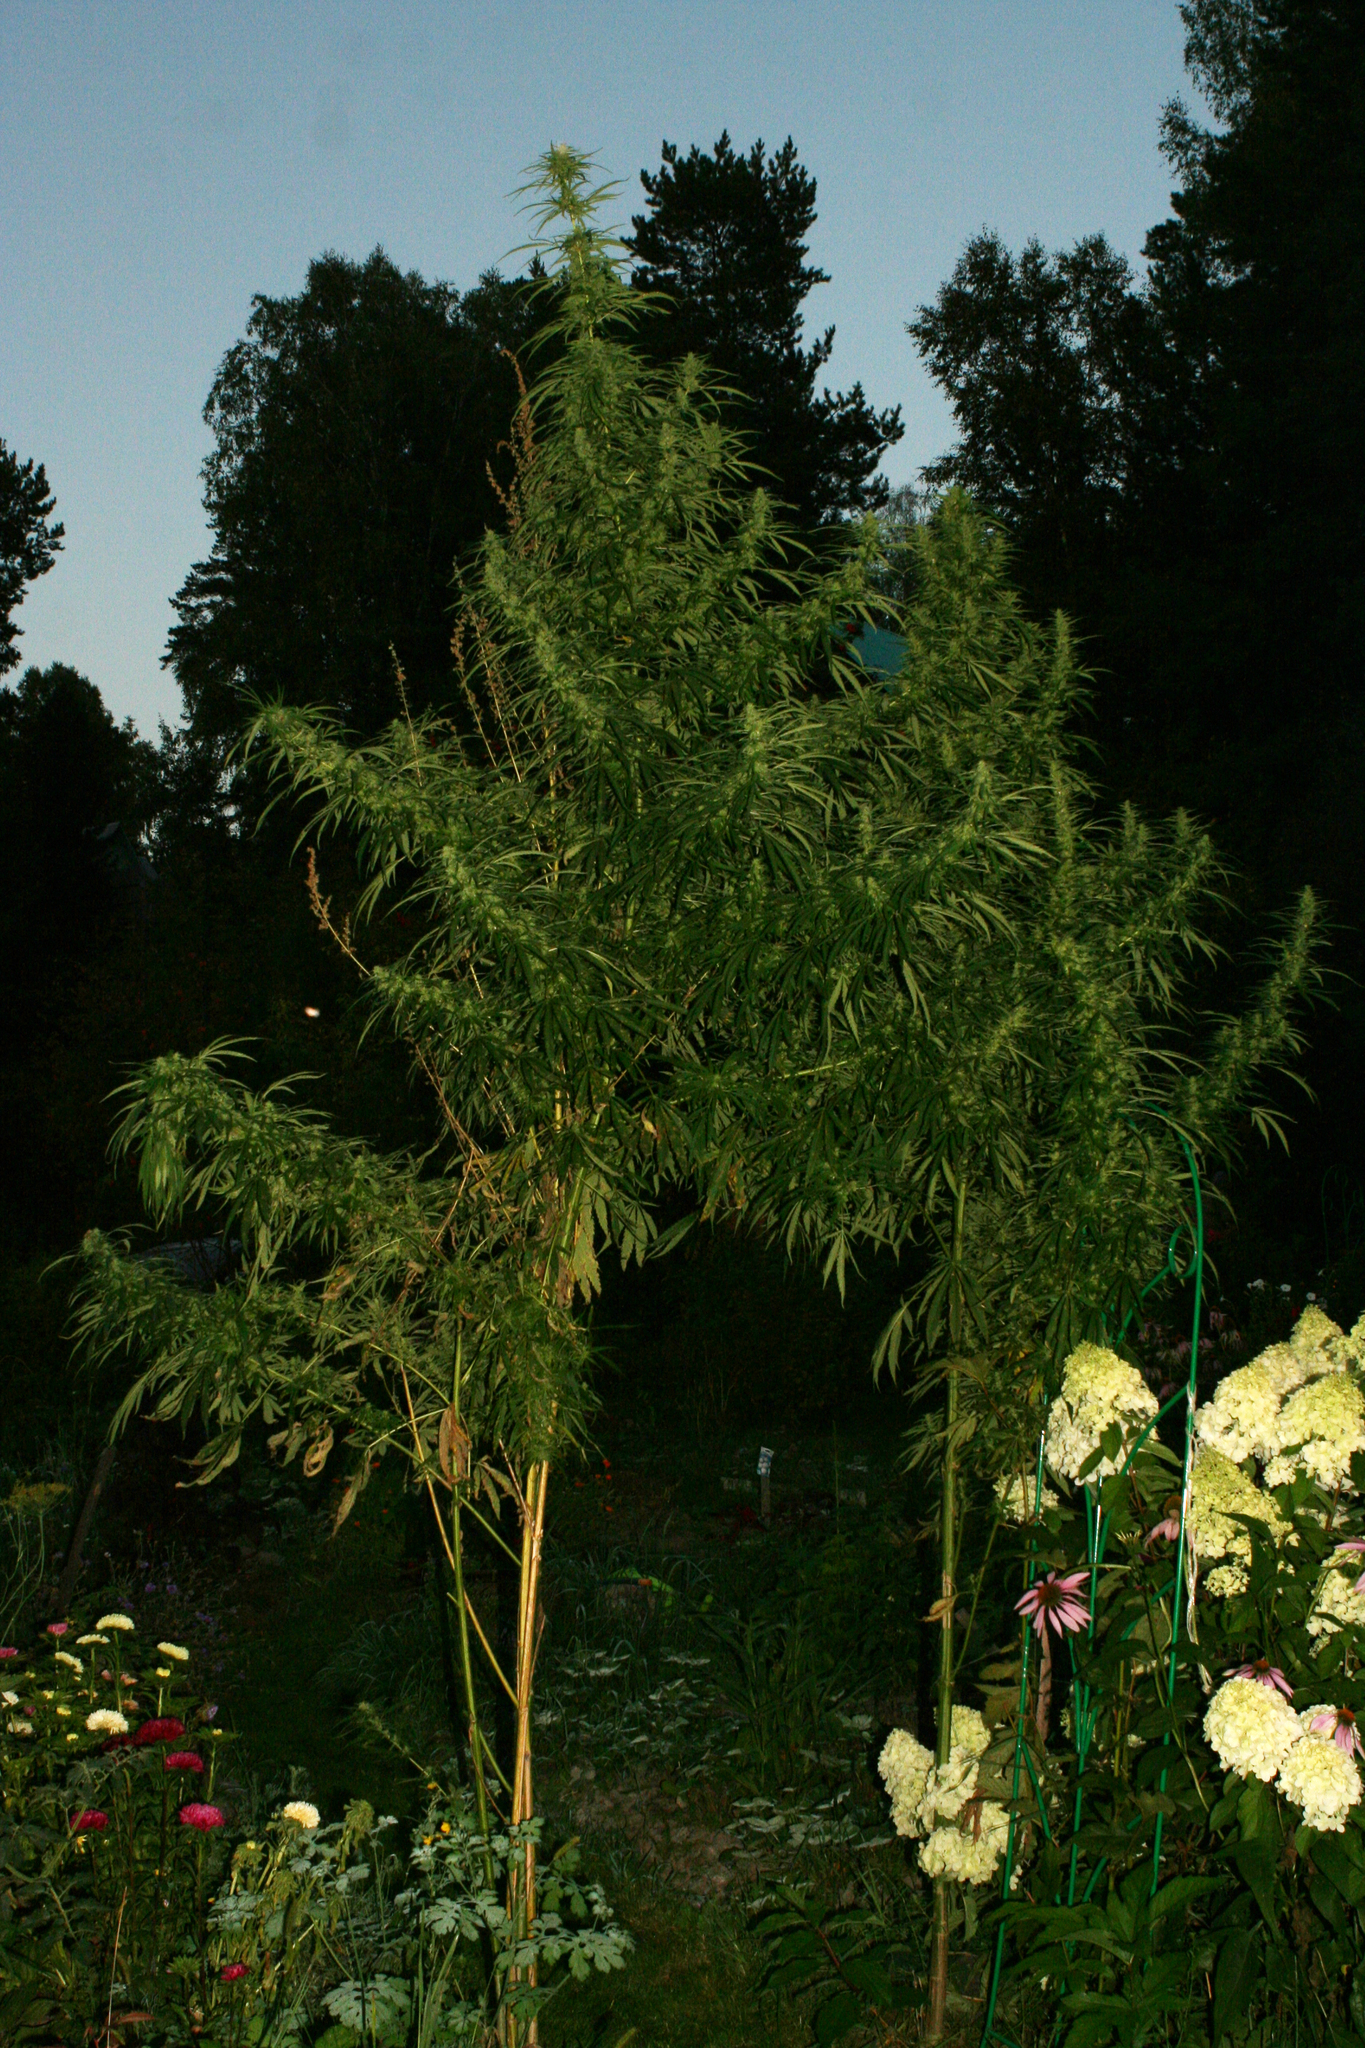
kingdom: Plantae
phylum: Tracheophyta
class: Magnoliopsida
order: Rosales
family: Cannabaceae
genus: Cannabis
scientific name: Cannabis sativa
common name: Hemp
